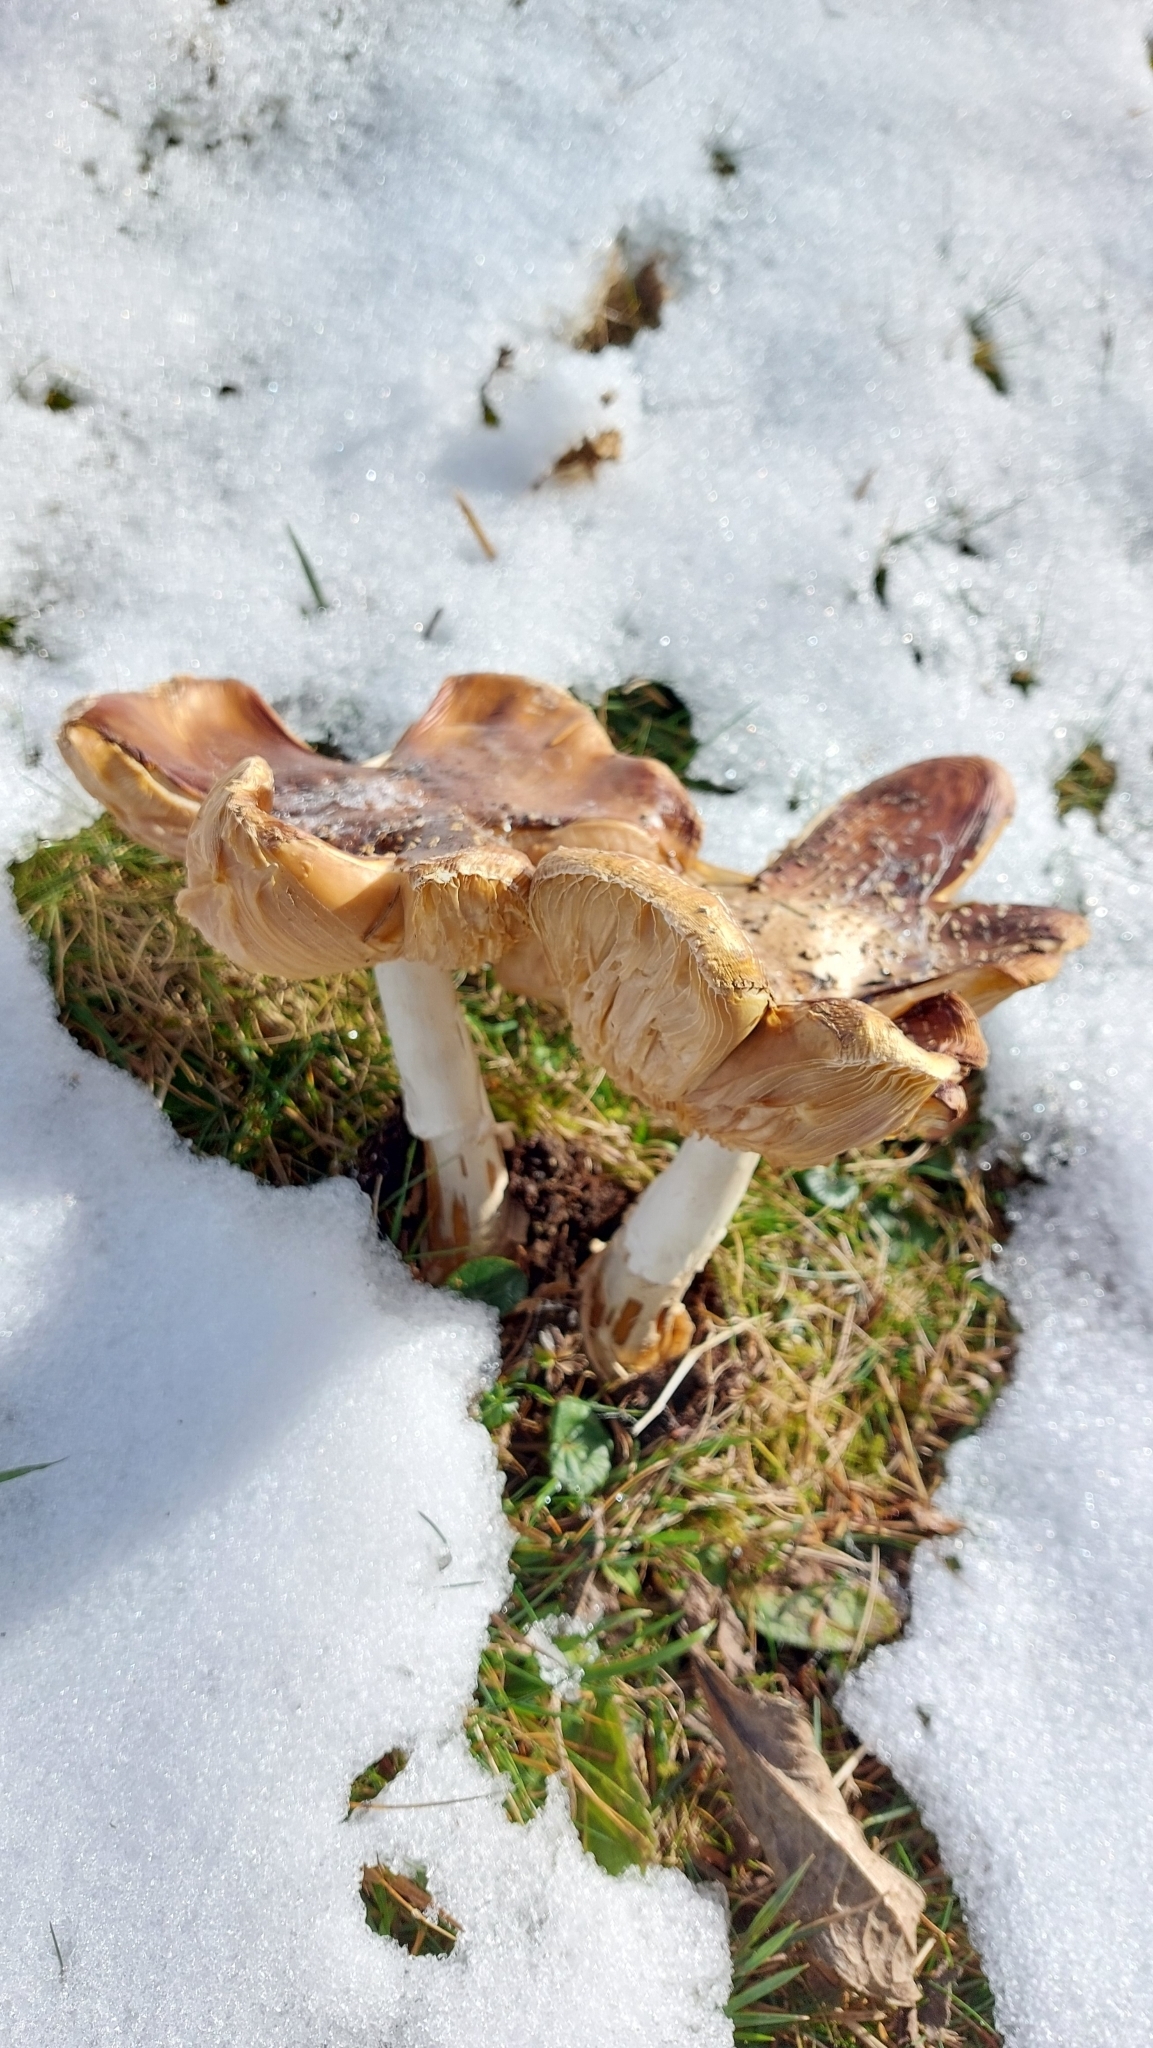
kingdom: Fungi
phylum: Basidiomycota
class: Agaricomycetes
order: Agaricales
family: Amanitaceae
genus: Amanita
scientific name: Amanita muscaria
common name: Fly agaric
